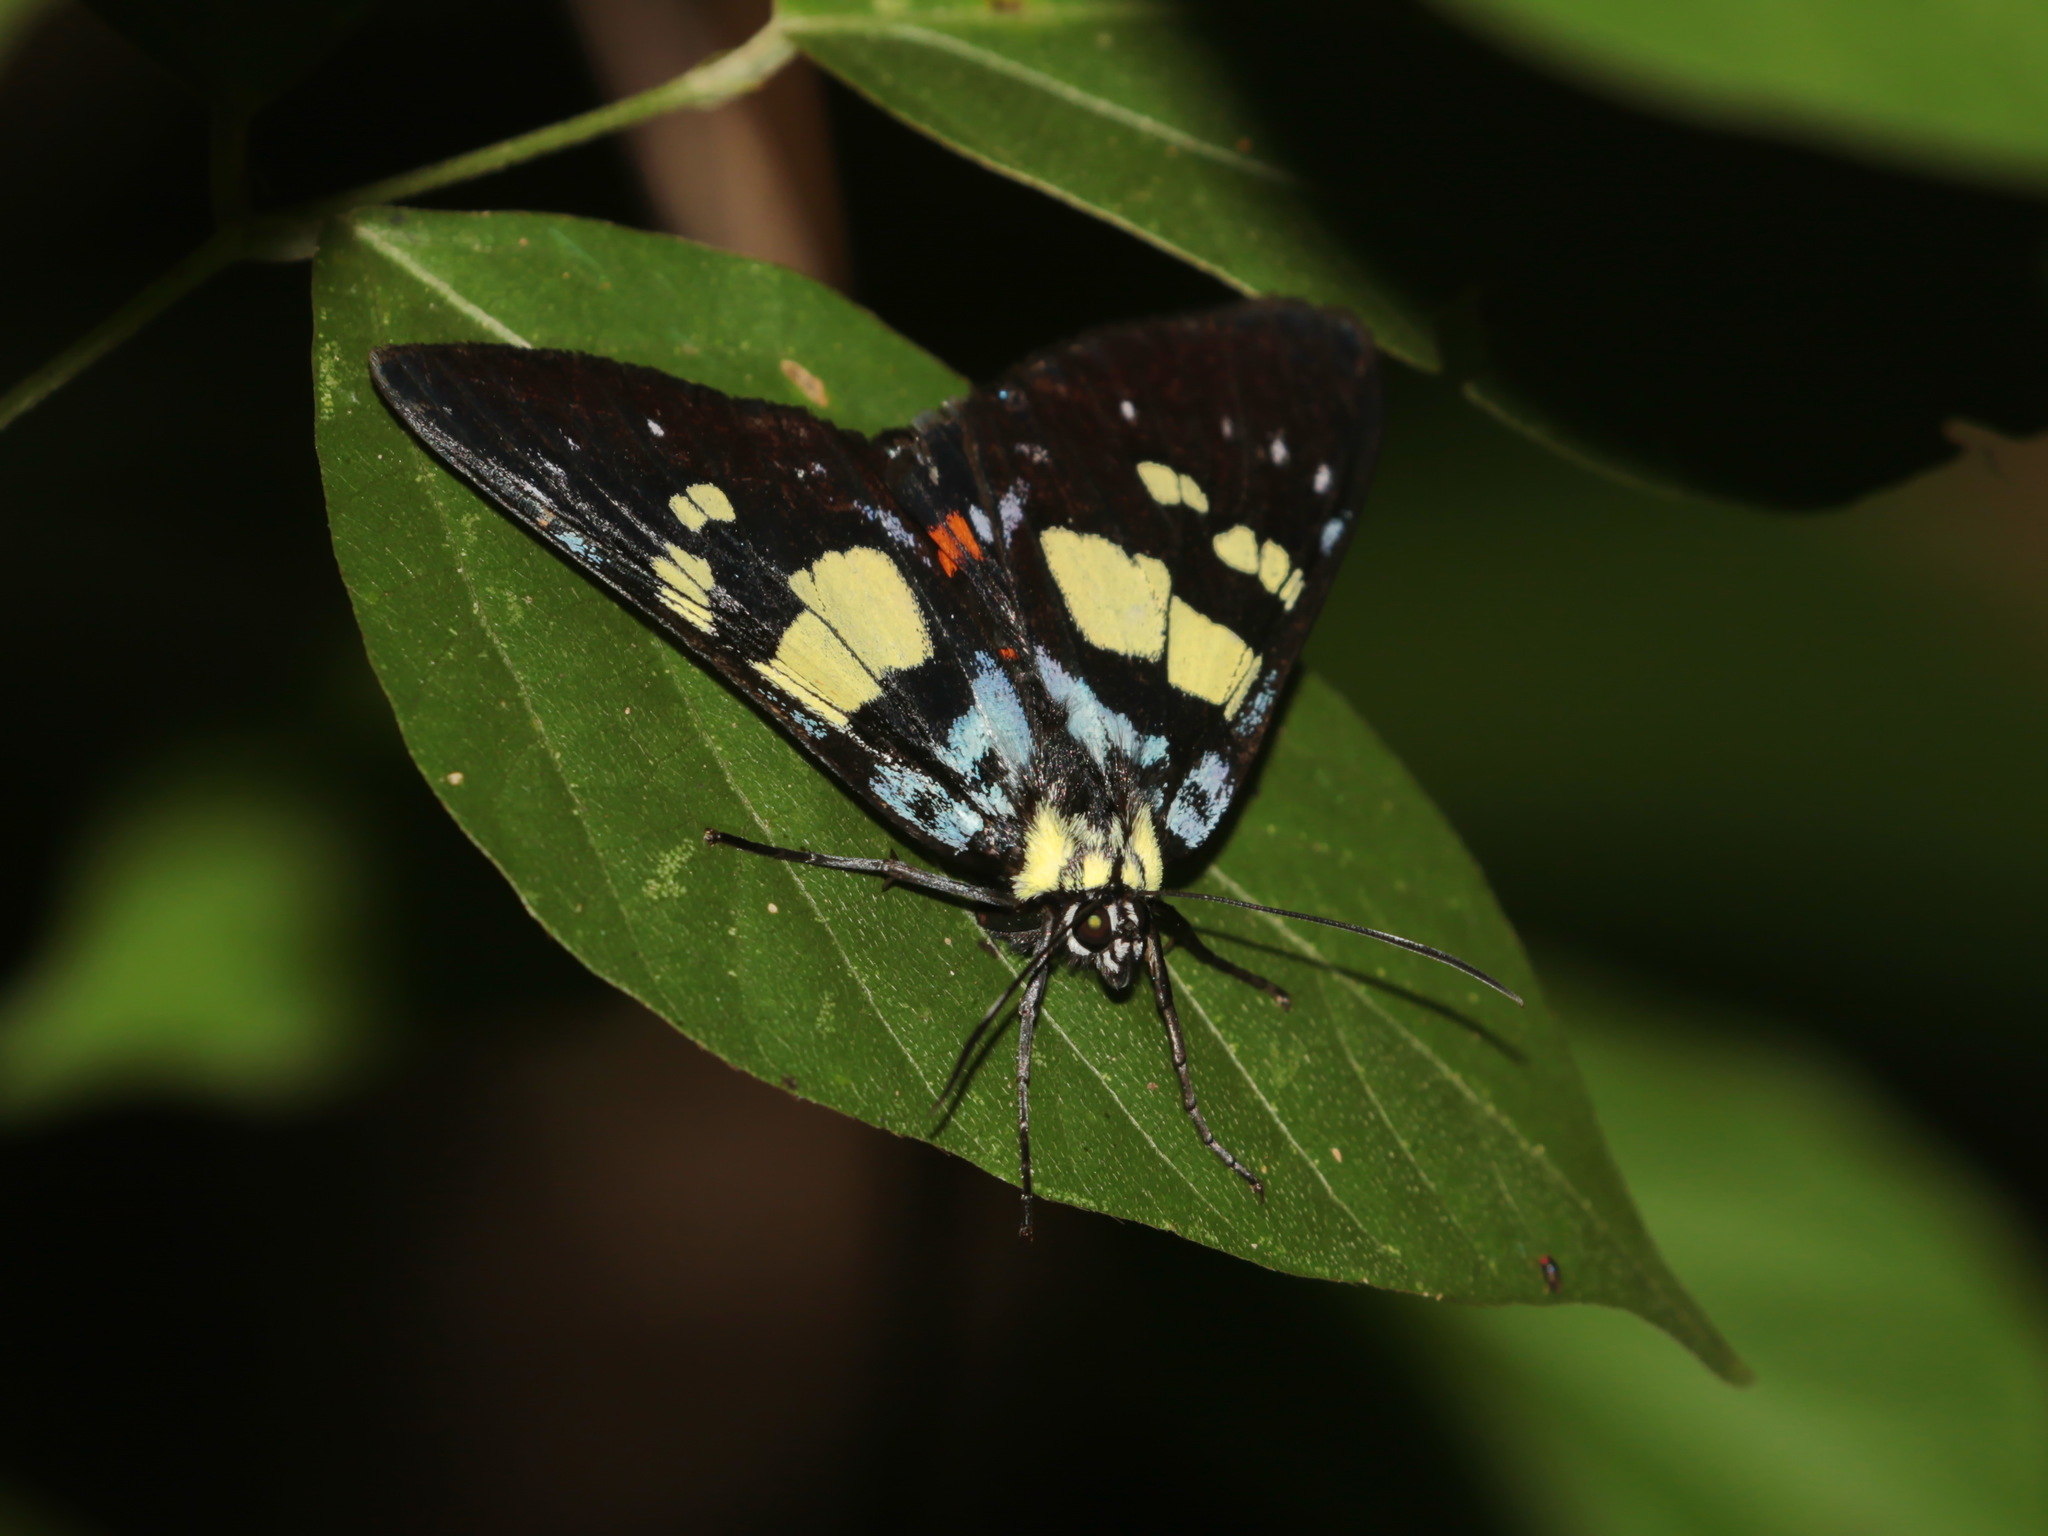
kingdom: Animalia
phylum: Arthropoda
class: Insecta
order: Lepidoptera
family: Noctuidae
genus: Episteme
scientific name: Episteme adulatrix
